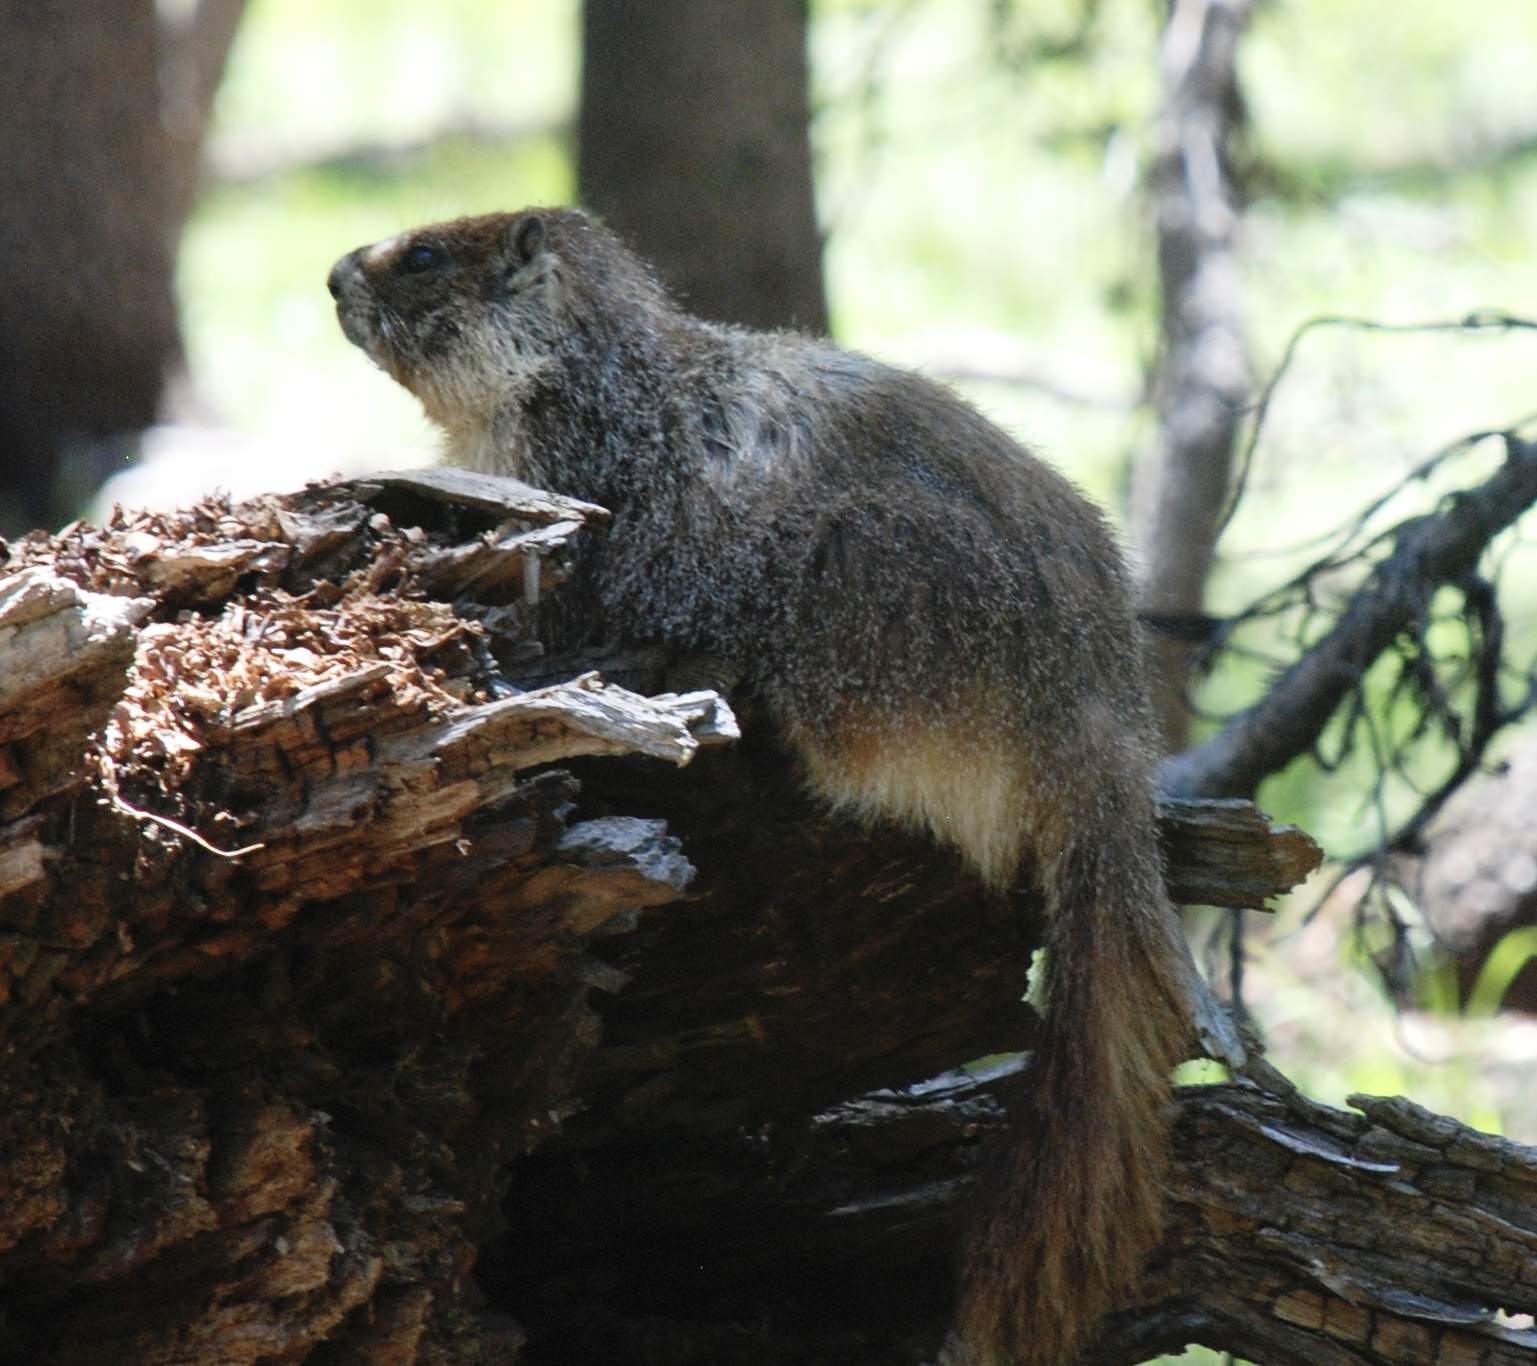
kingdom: Animalia
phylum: Chordata
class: Mammalia
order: Rodentia
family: Sciuridae
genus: Marmota
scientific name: Marmota flaviventris
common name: Yellow-bellied marmot
